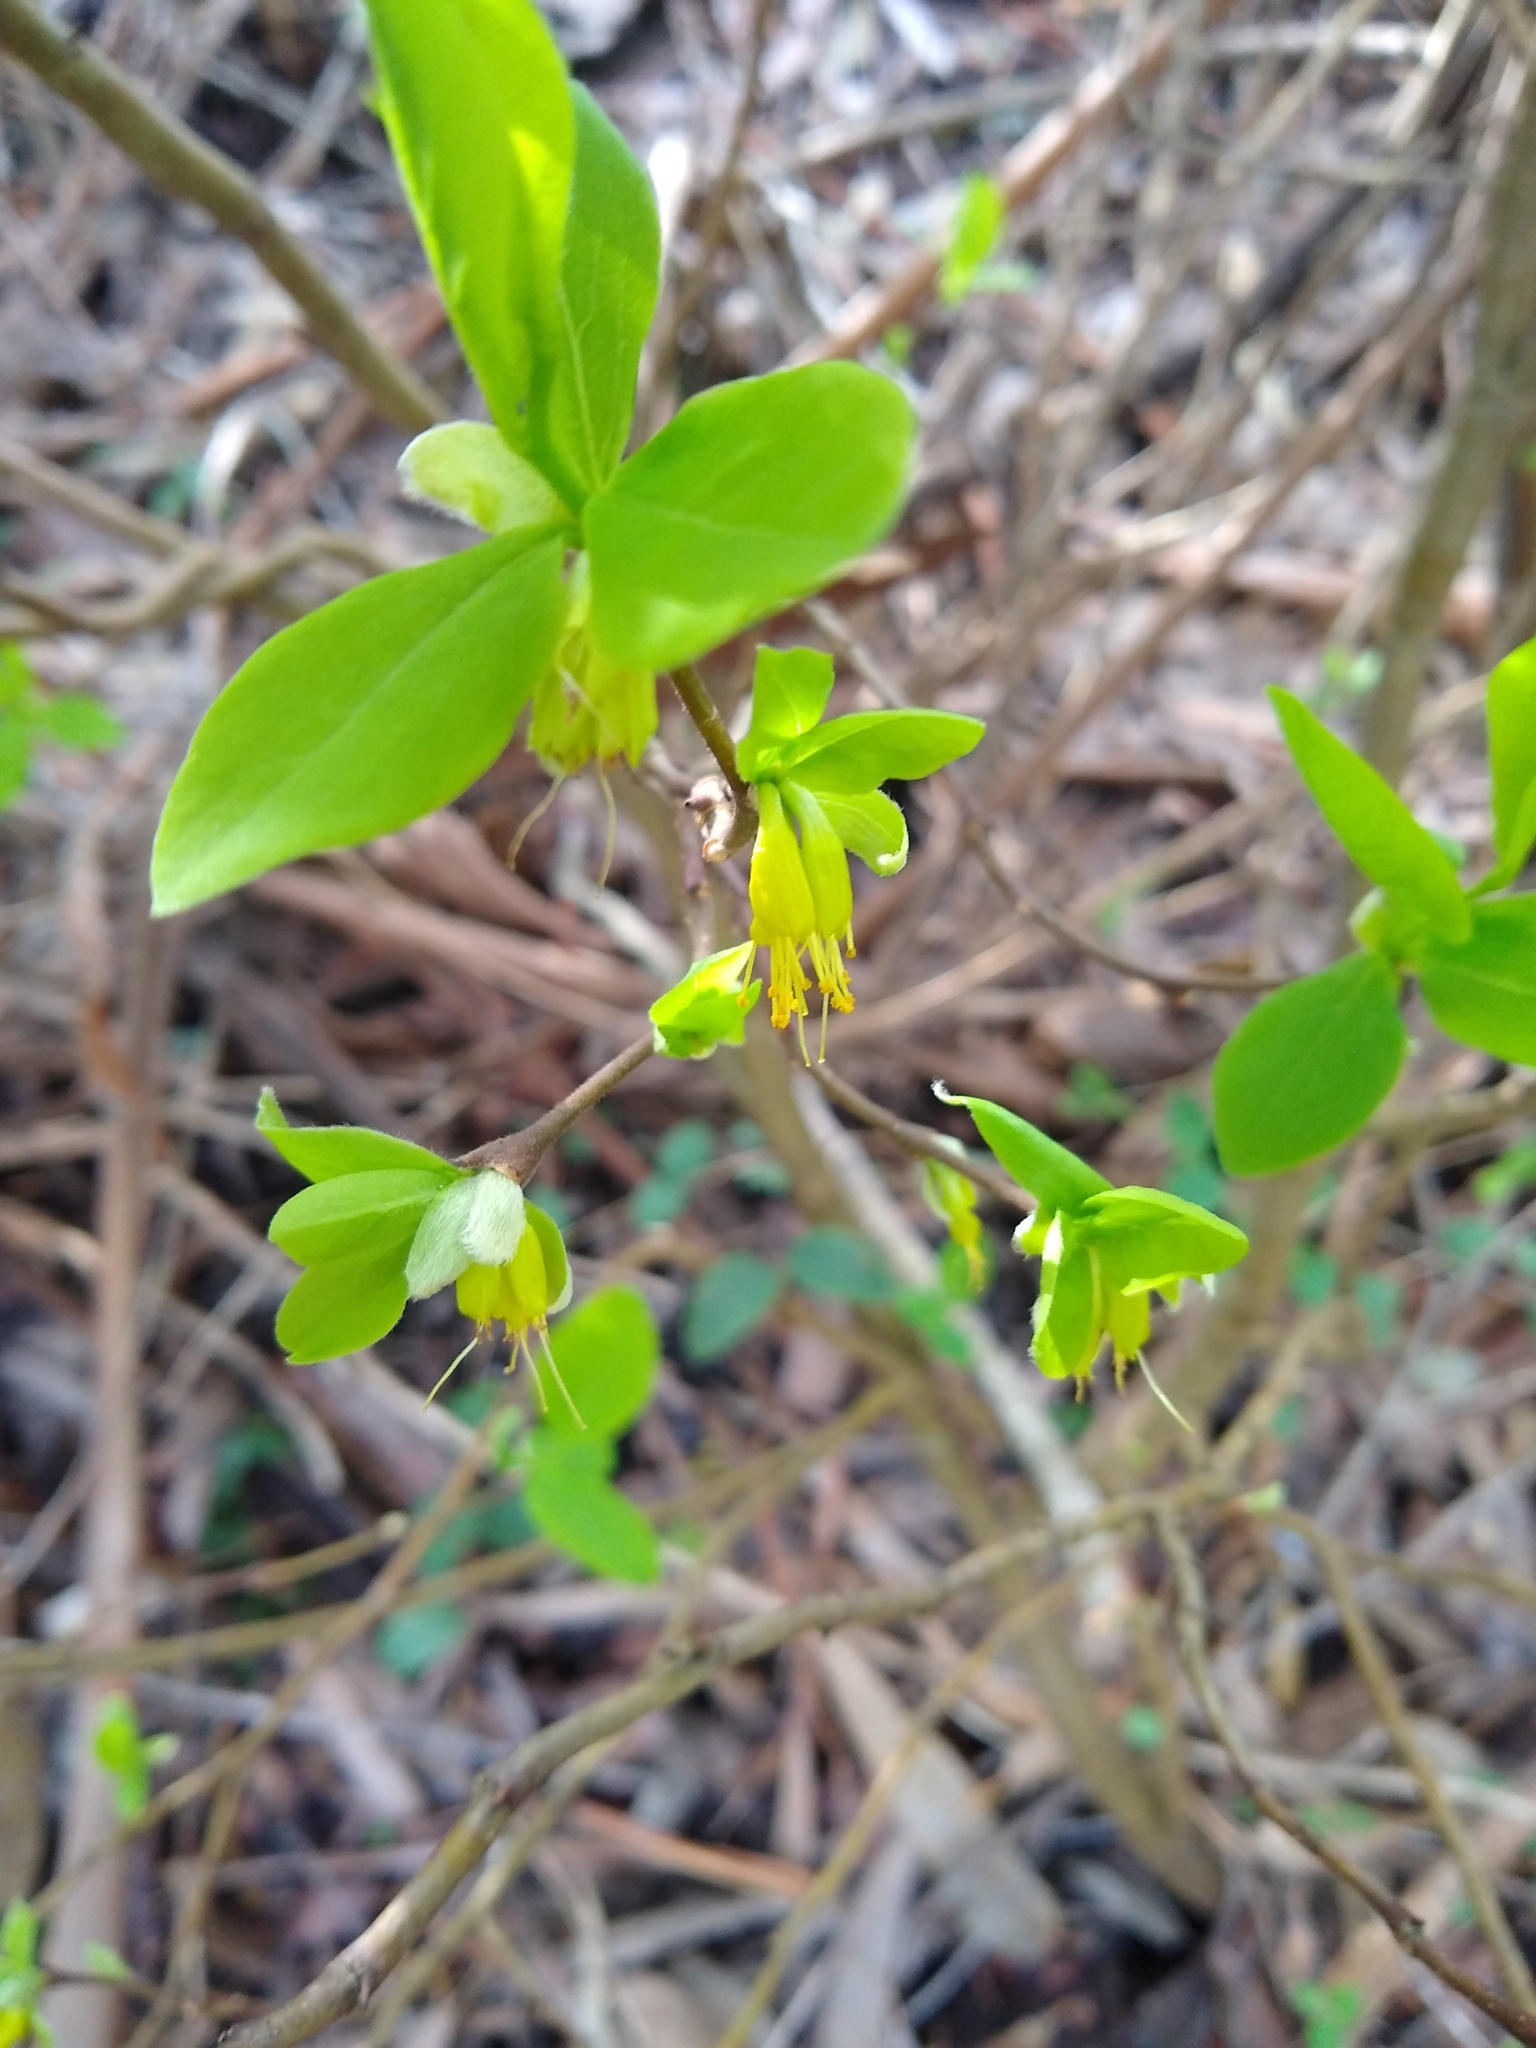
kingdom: Plantae
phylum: Tracheophyta
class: Magnoliopsida
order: Malvales
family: Thymelaeaceae
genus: Dirca
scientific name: Dirca occidentalis
